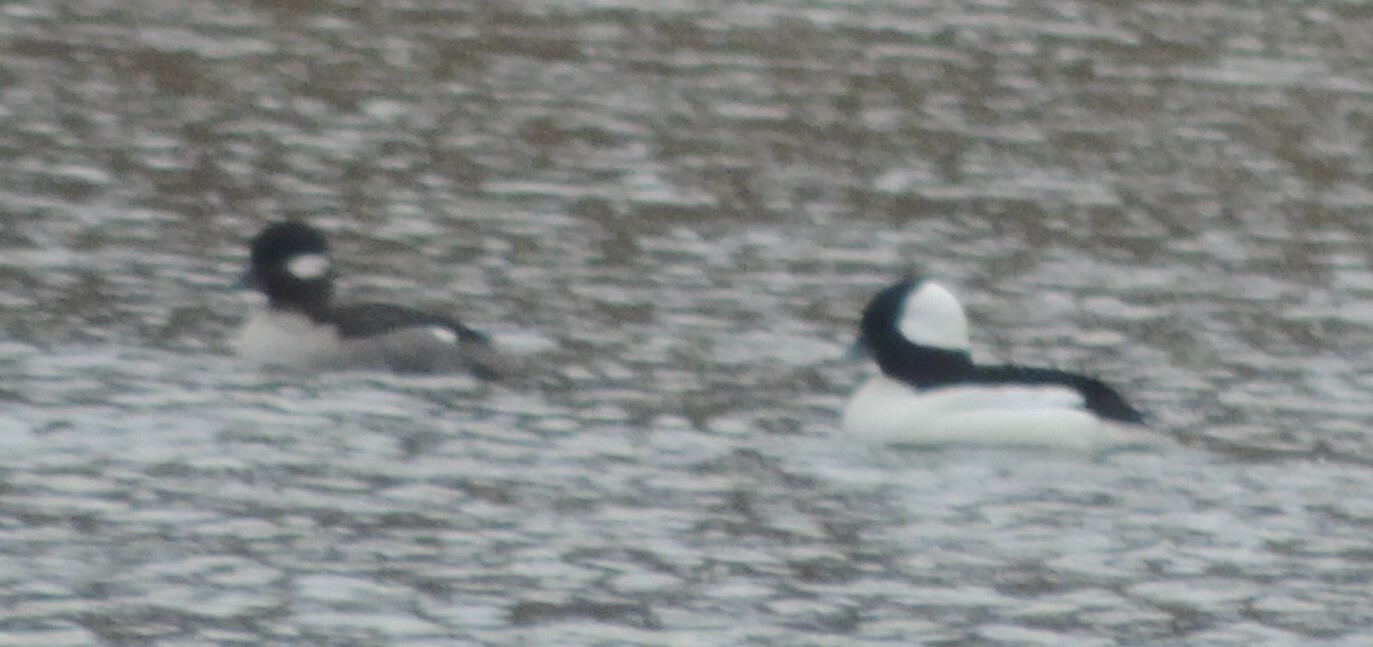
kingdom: Animalia
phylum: Chordata
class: Aves
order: Anseriformes
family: Anatidae
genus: Bucephala
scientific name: Bucephala albeola
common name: Bufflehead
